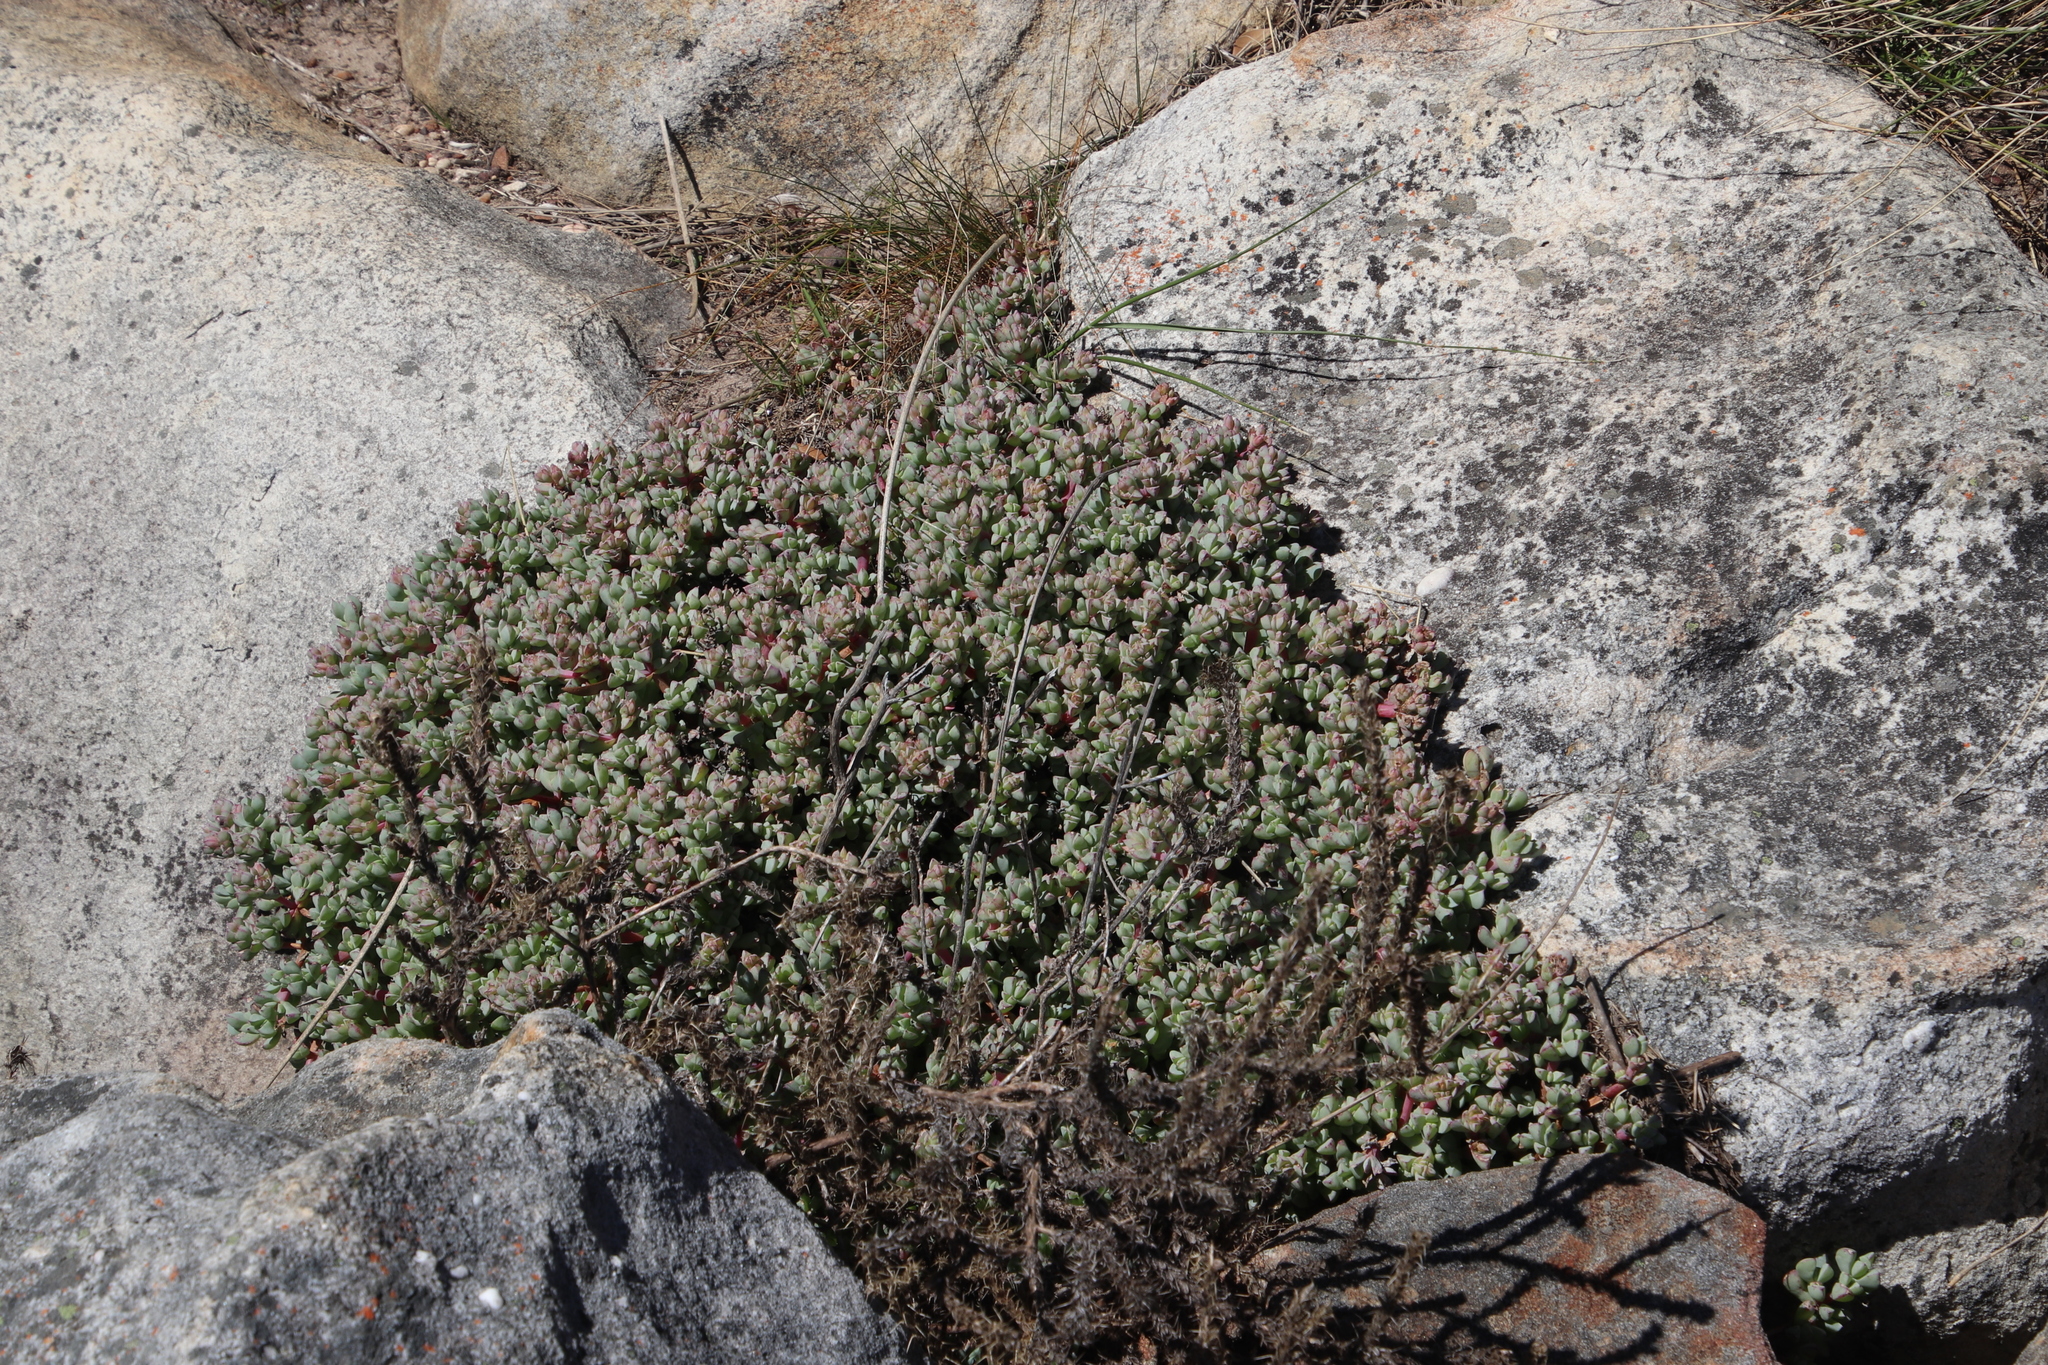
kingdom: Plantae
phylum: Tracheophyta
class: Magnoliopsida
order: Caryophyllales
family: Aizoaceae
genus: Oscularia
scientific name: Oscularia caulescens
